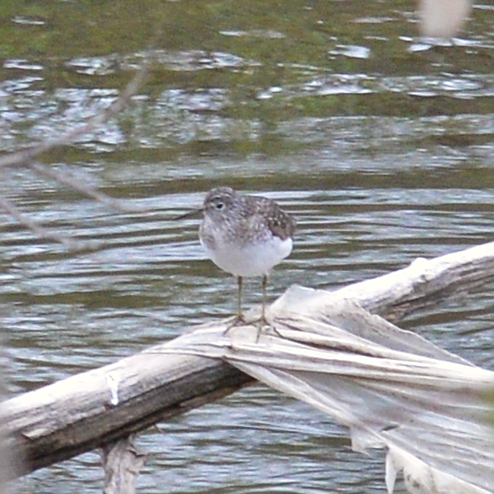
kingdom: Animalia
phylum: Chordata
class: Aves
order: Charadriiformes
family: Scolopacidae
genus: Tringa
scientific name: Tringa solitaria
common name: Solitary sandpiper
